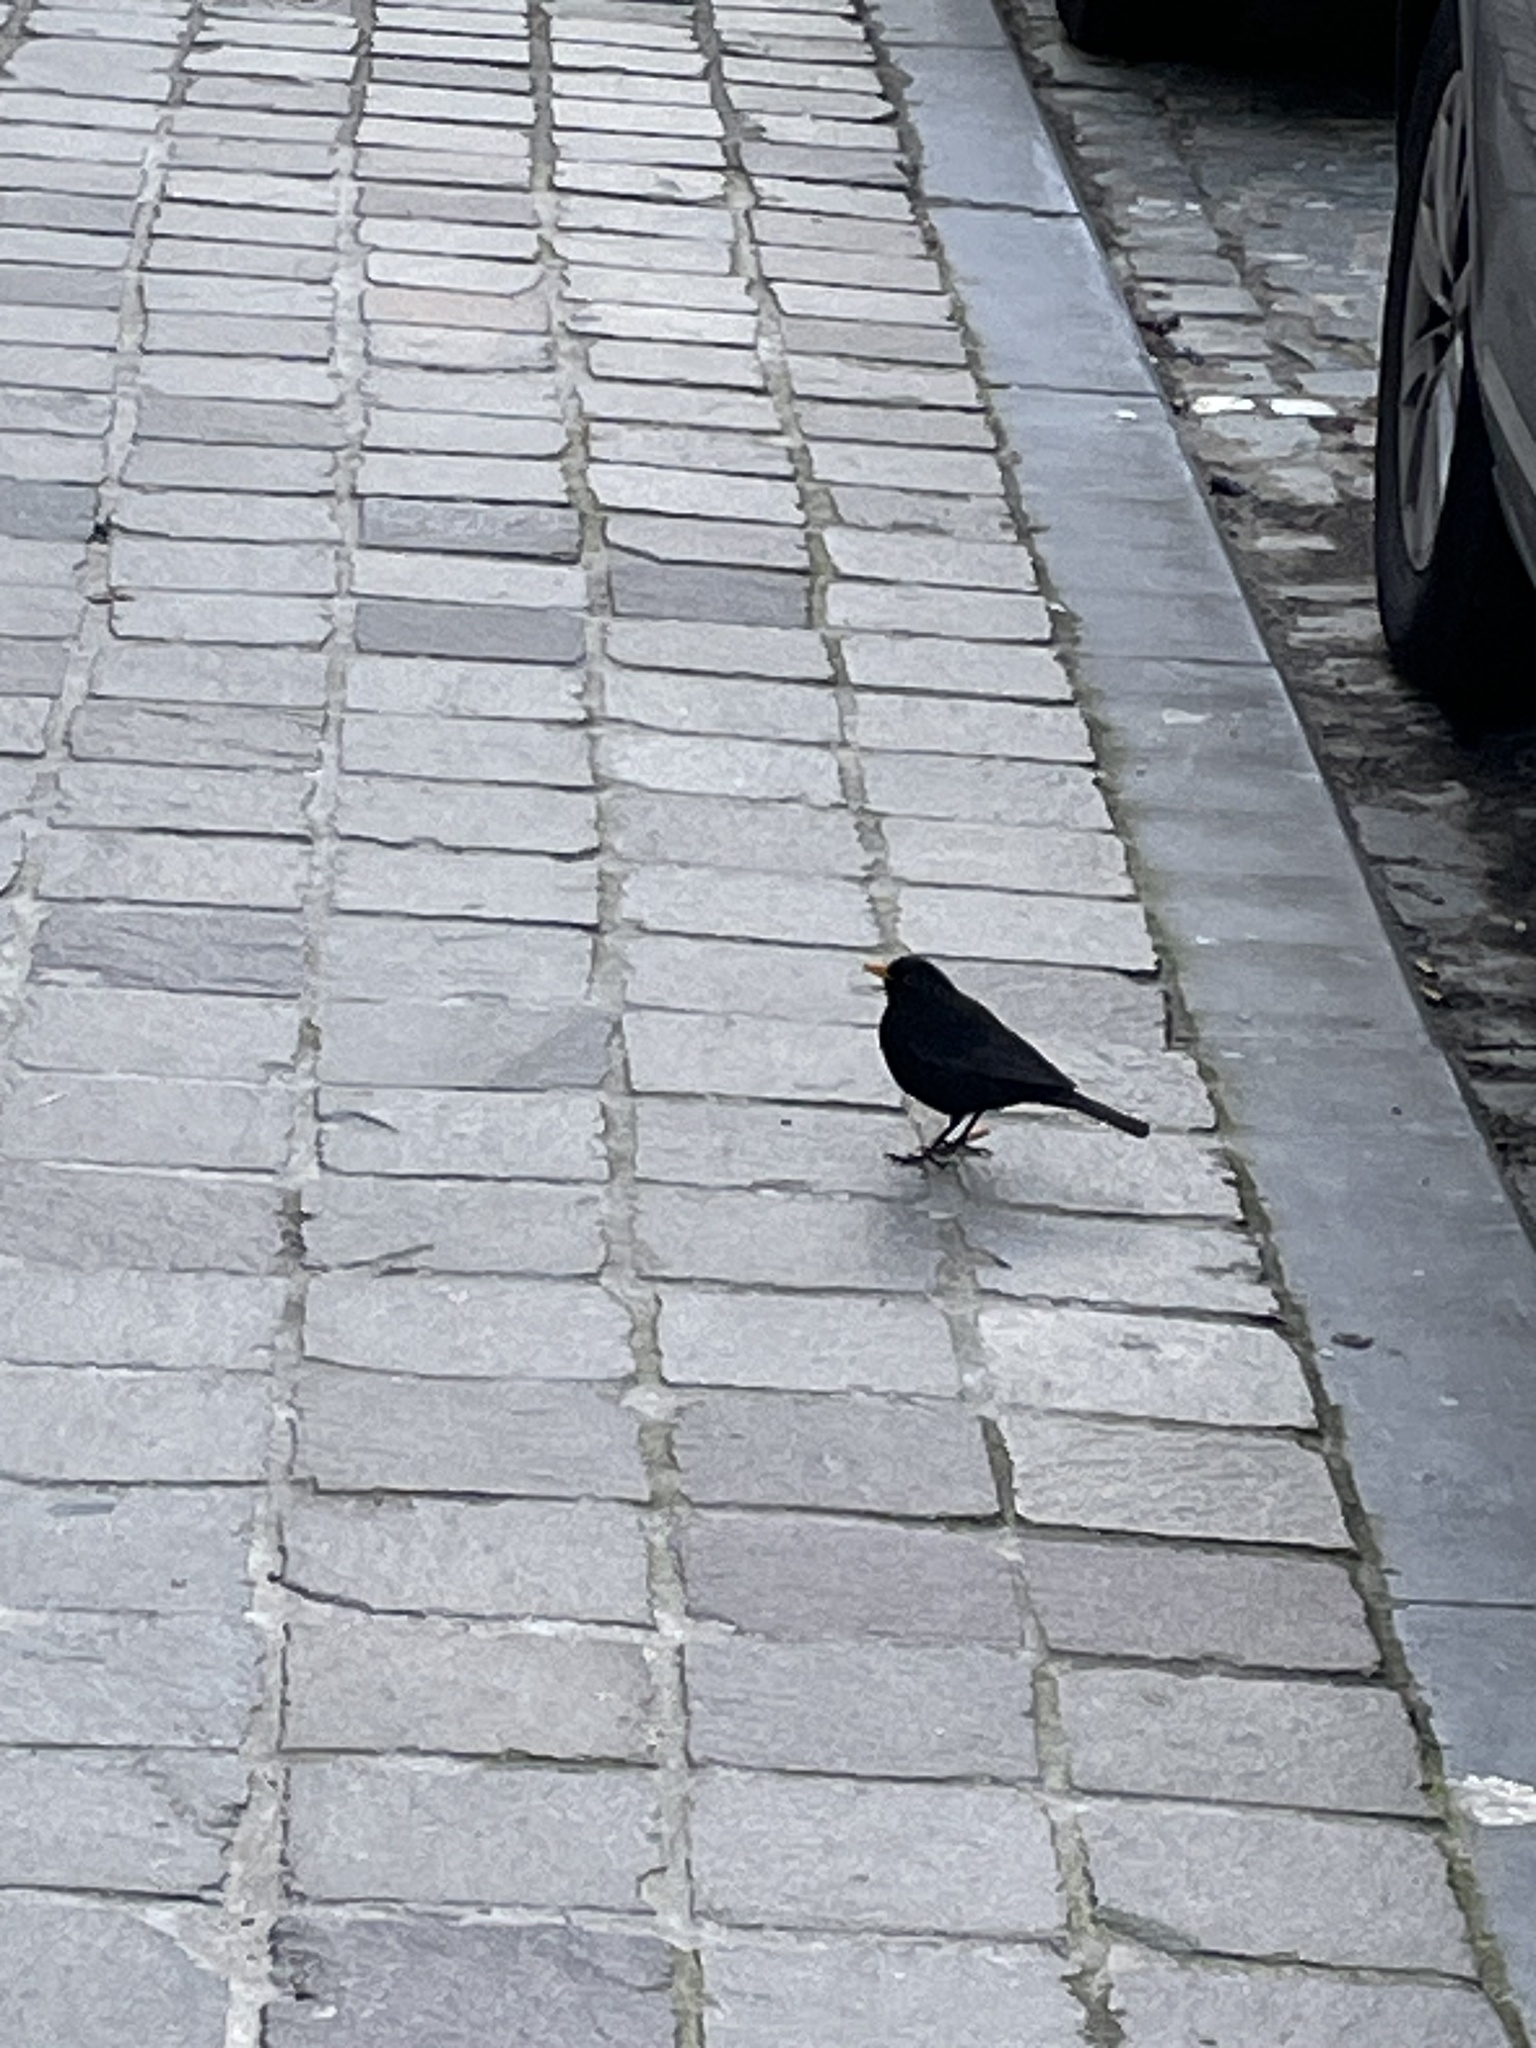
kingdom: Animalia
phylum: Chordata
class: Aves
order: Passeriformes
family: Turdidae
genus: Turdus
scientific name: Turdus merula
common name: Common blackbird
